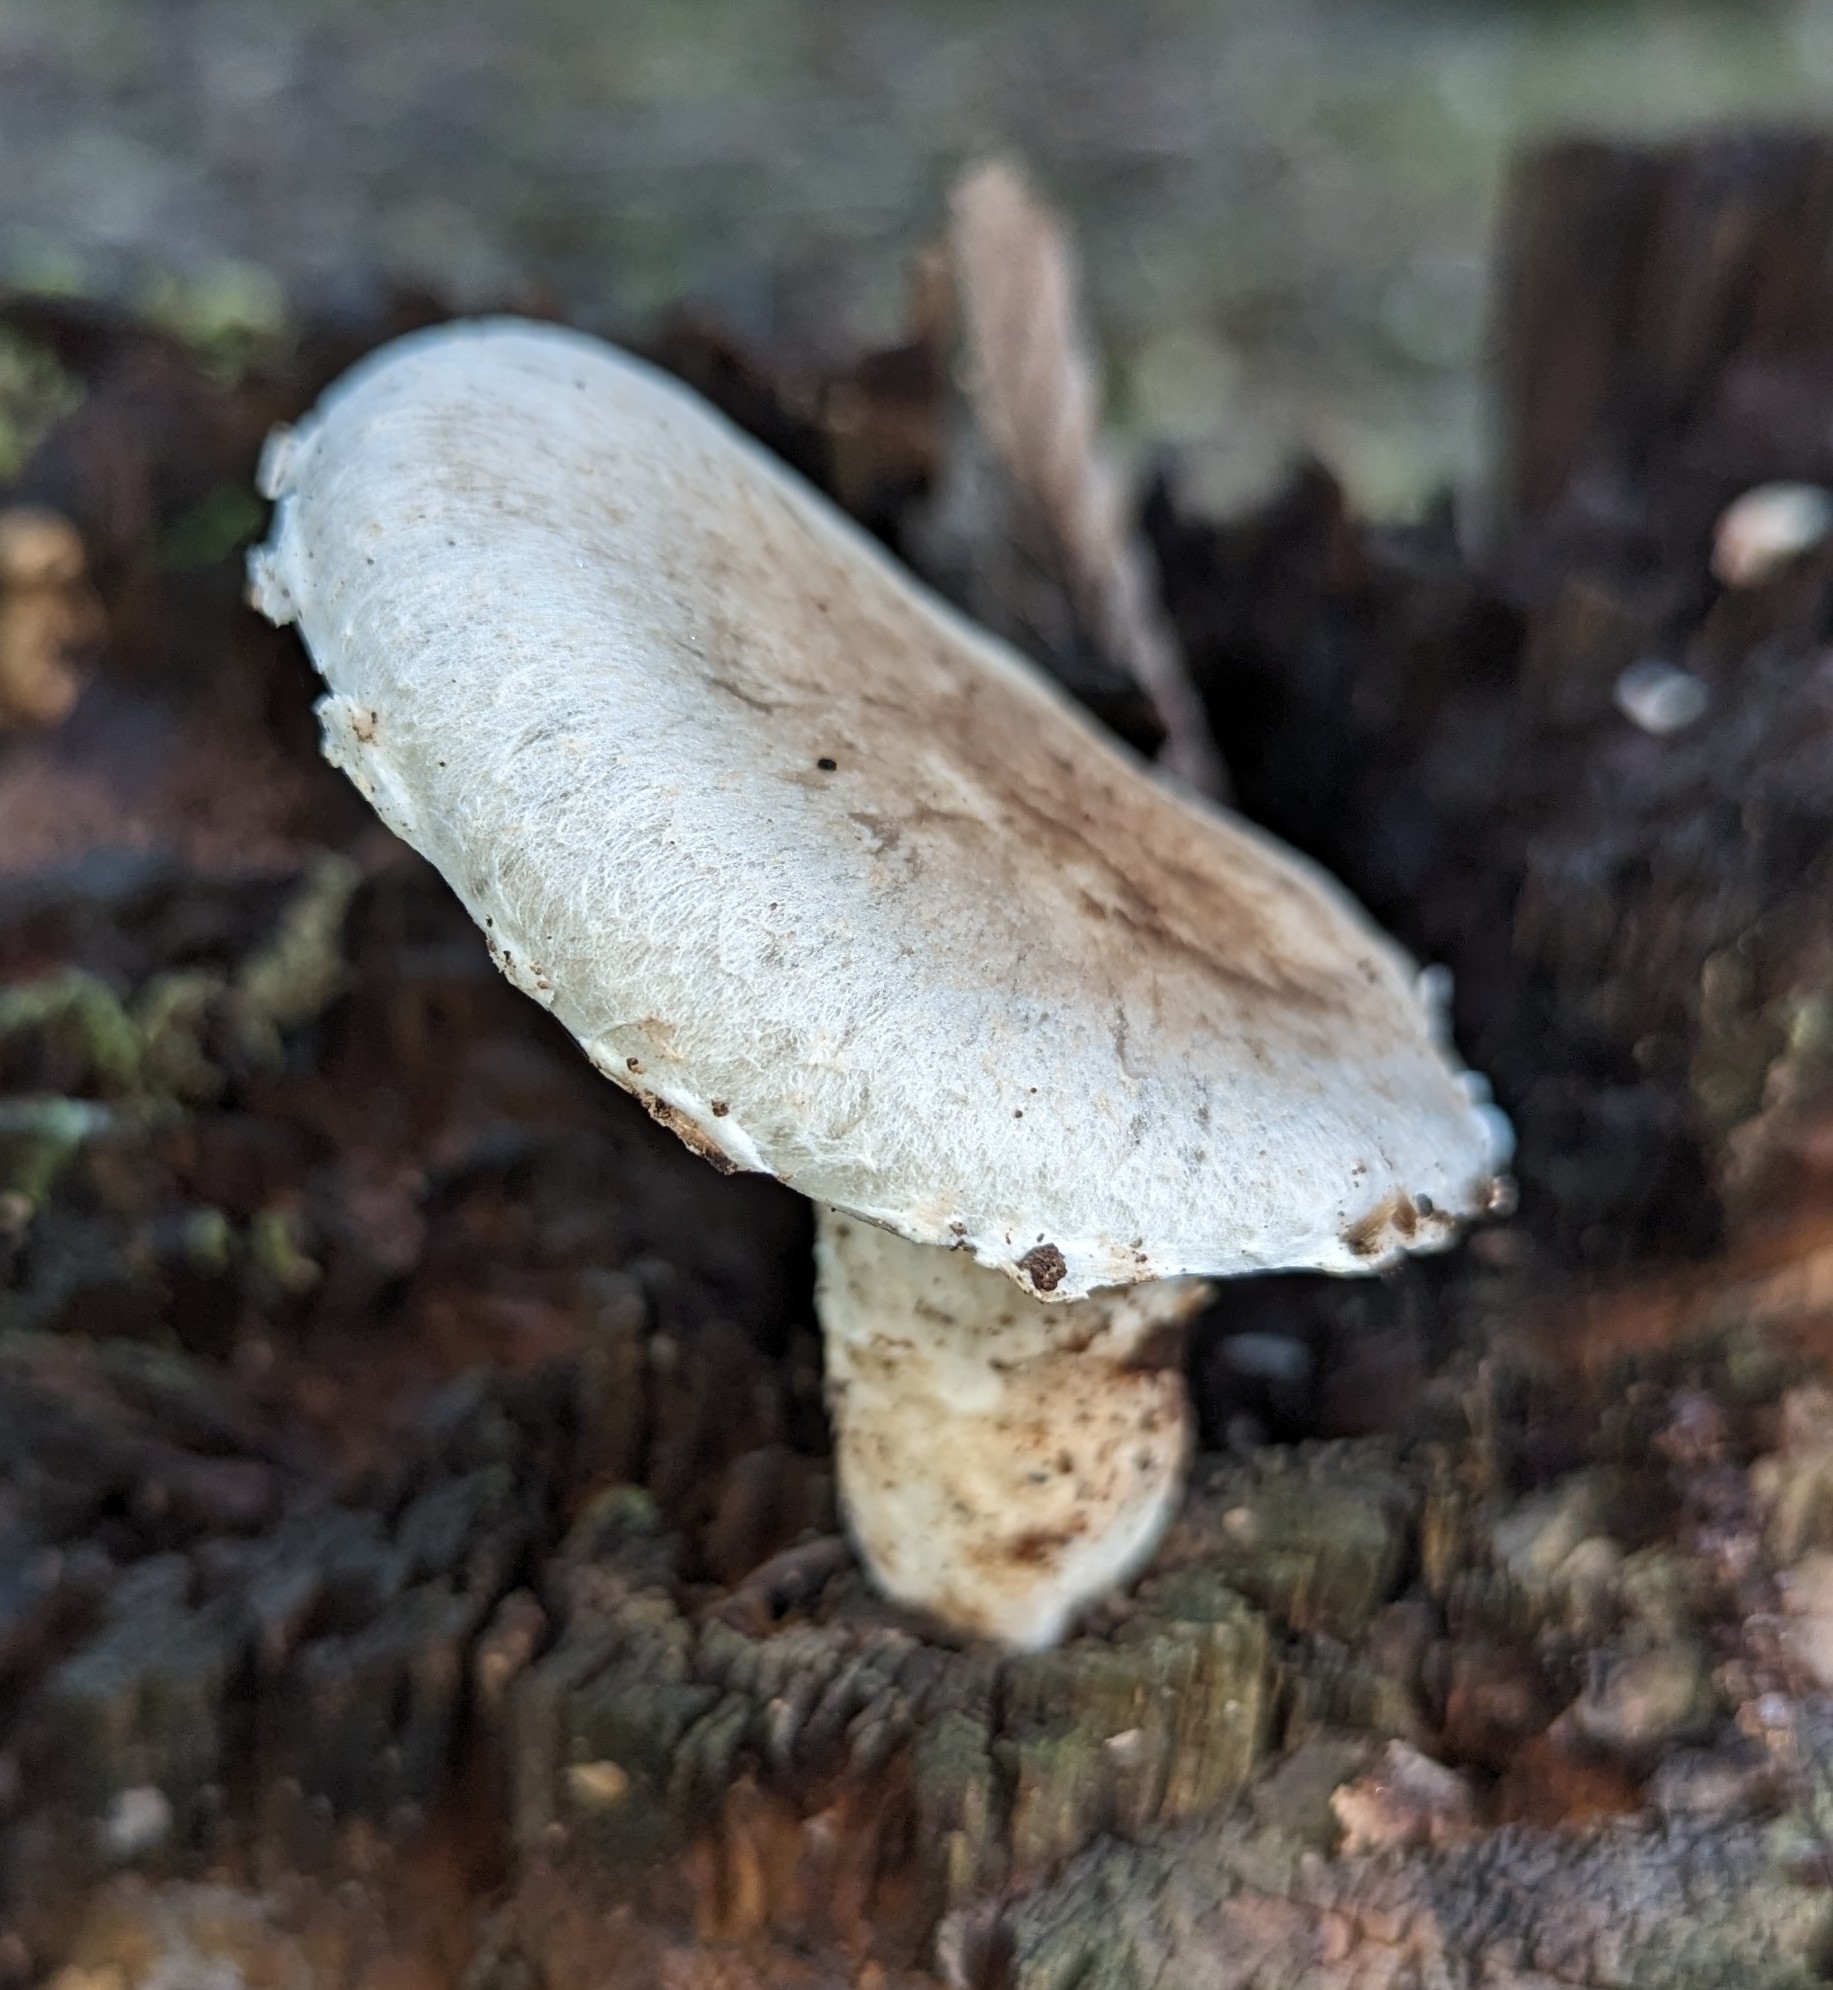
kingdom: Fungi
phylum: Basidiomycota
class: Agaricomycetes
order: Agaricales
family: Pleurotaceae
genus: Pleurotus
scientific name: Pleurotus dryinus
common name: Veiled oyster
